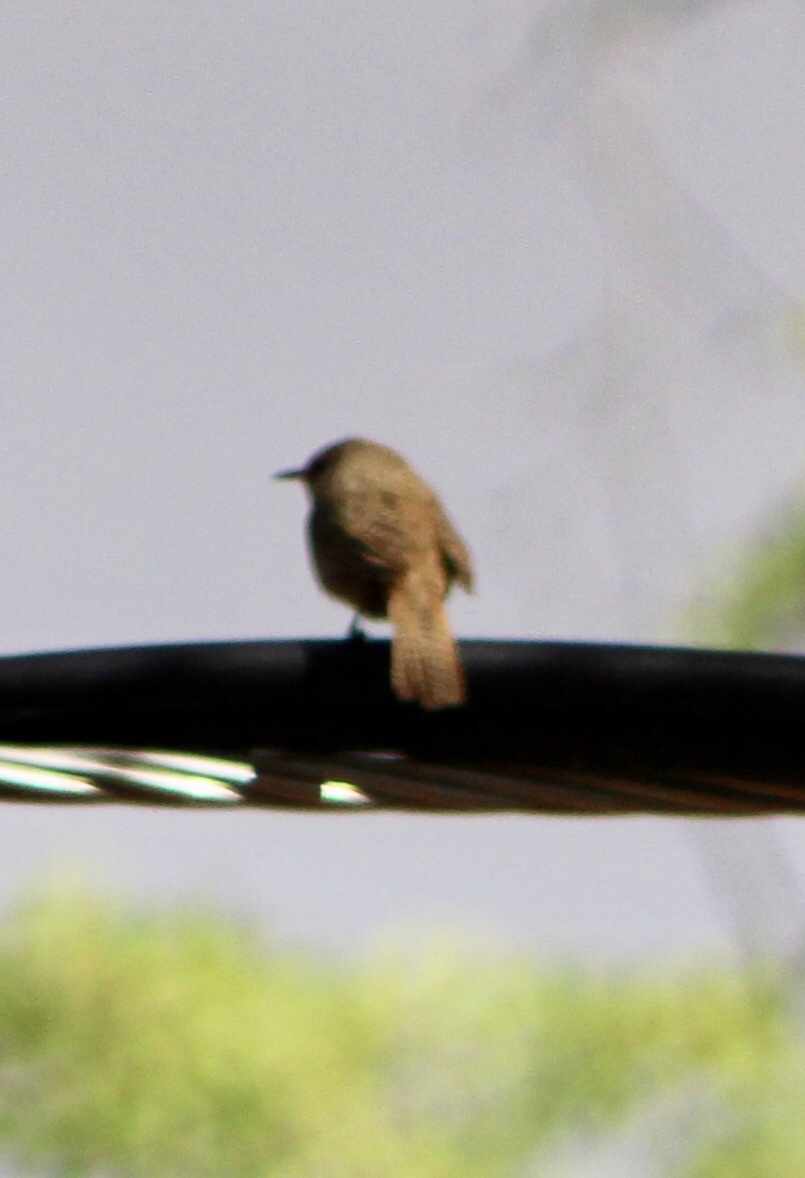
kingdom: Animalia
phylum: Chordata
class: Aves
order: Passeriformes
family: Troglodytidae
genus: Troglodytes
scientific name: Troglodytes aedon
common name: House wren
